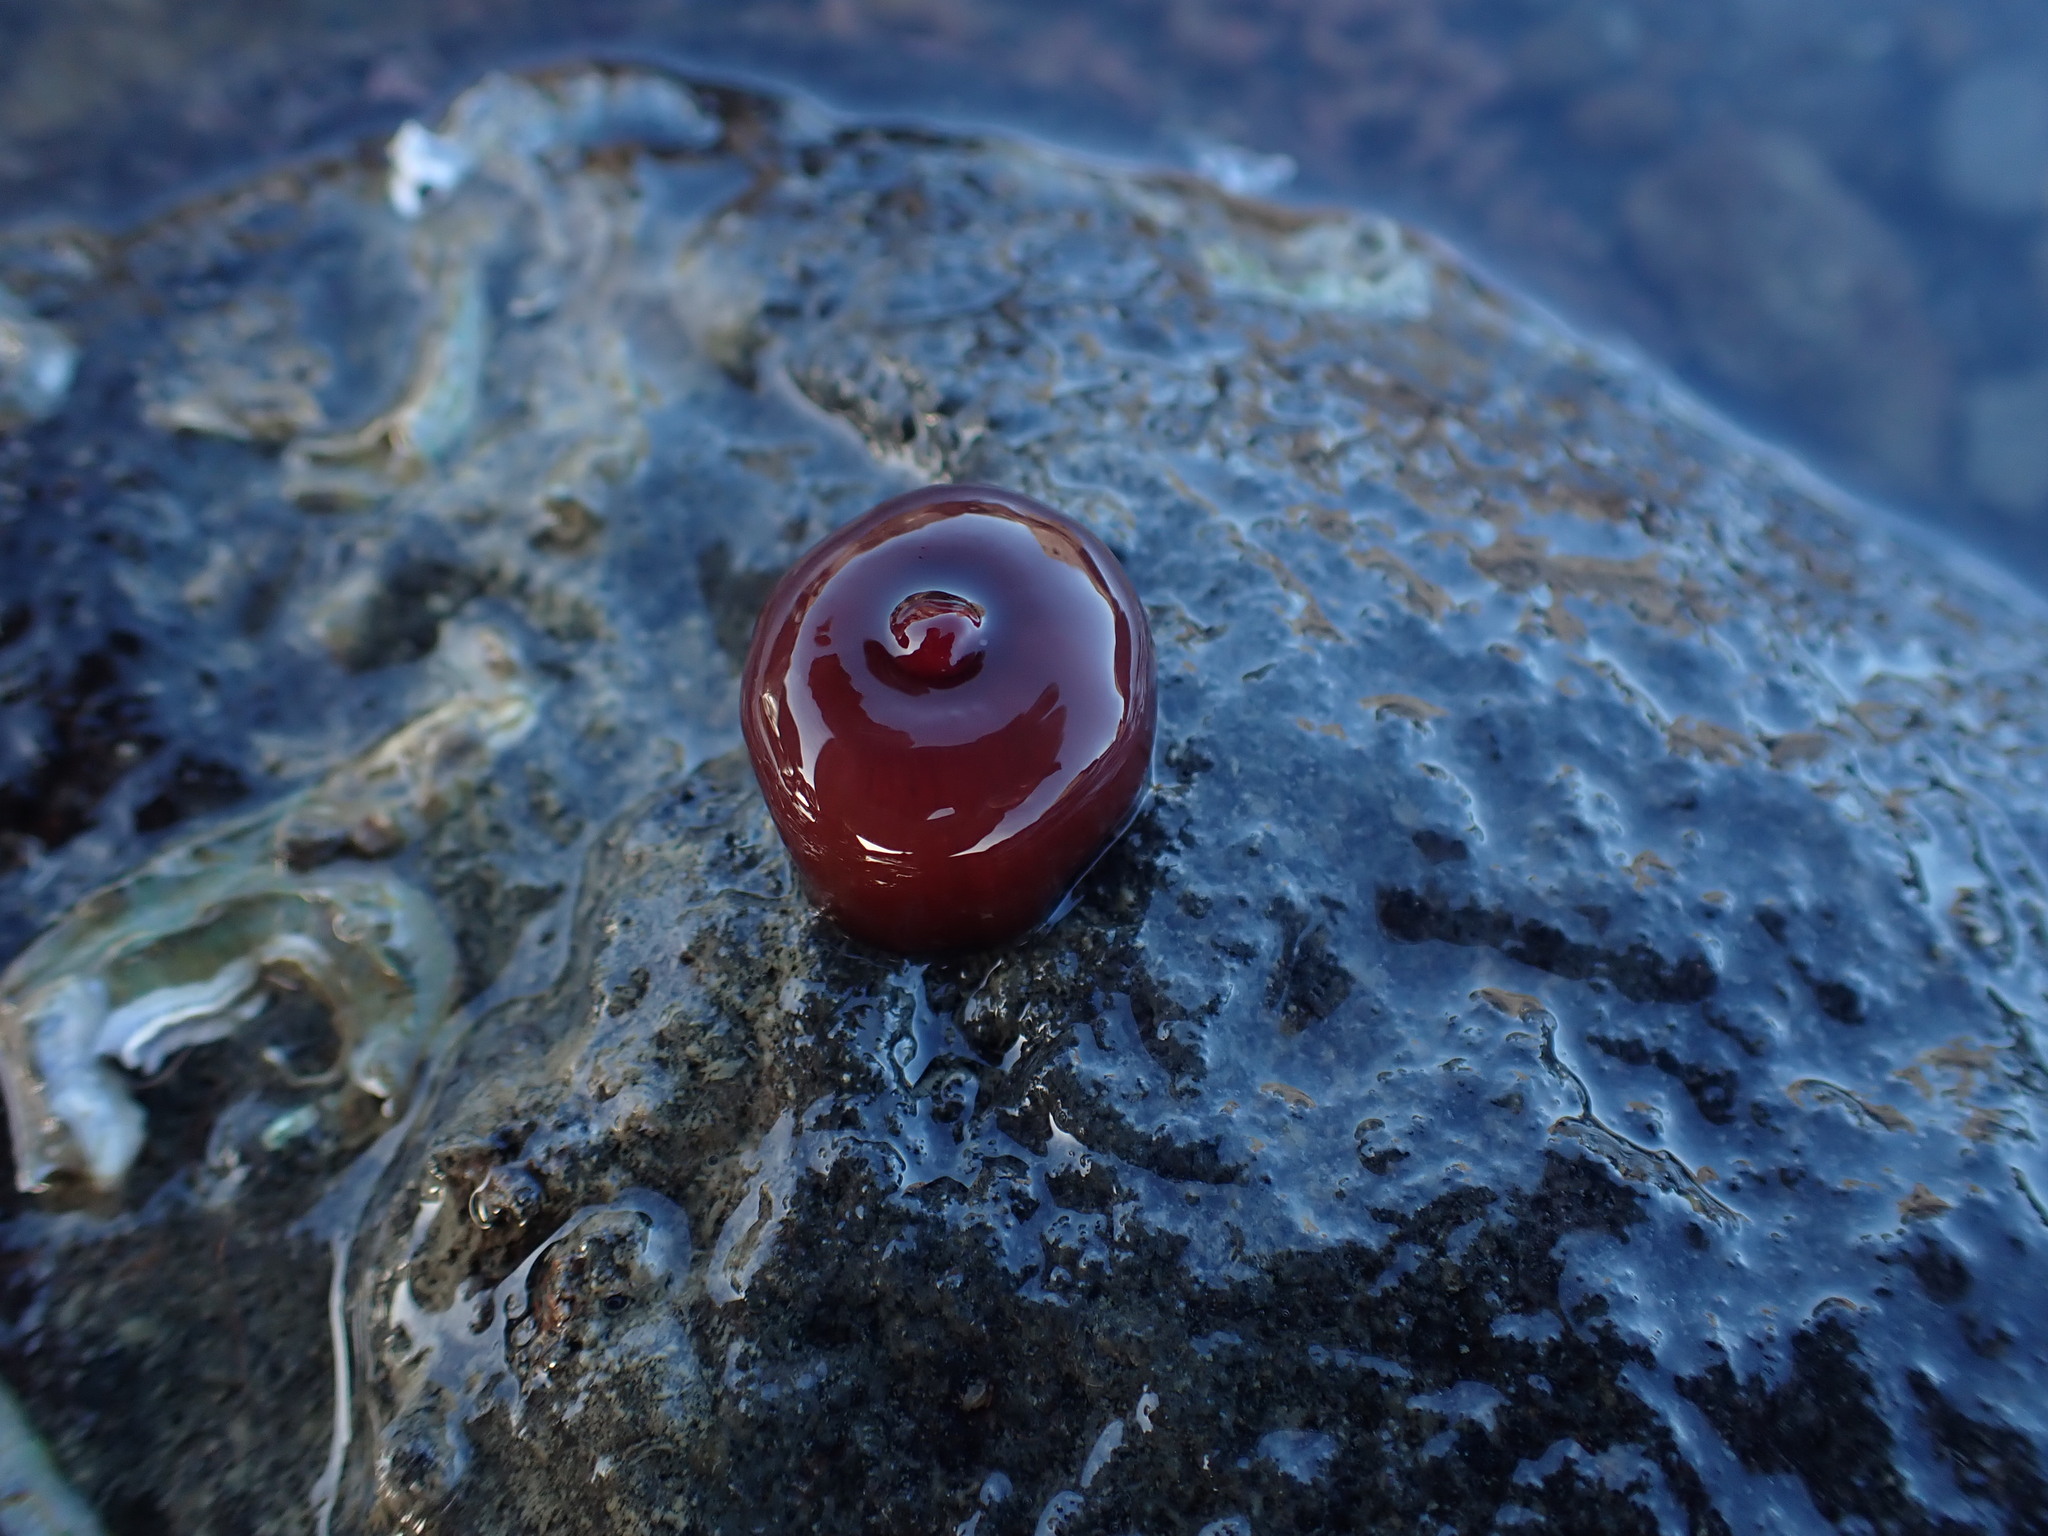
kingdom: Animalia
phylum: Cnidaria
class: Anthozoa
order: Actiniaria
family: Actiniidae
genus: Actinia
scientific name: Actinia tenebrosa
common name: Waratah anemone
